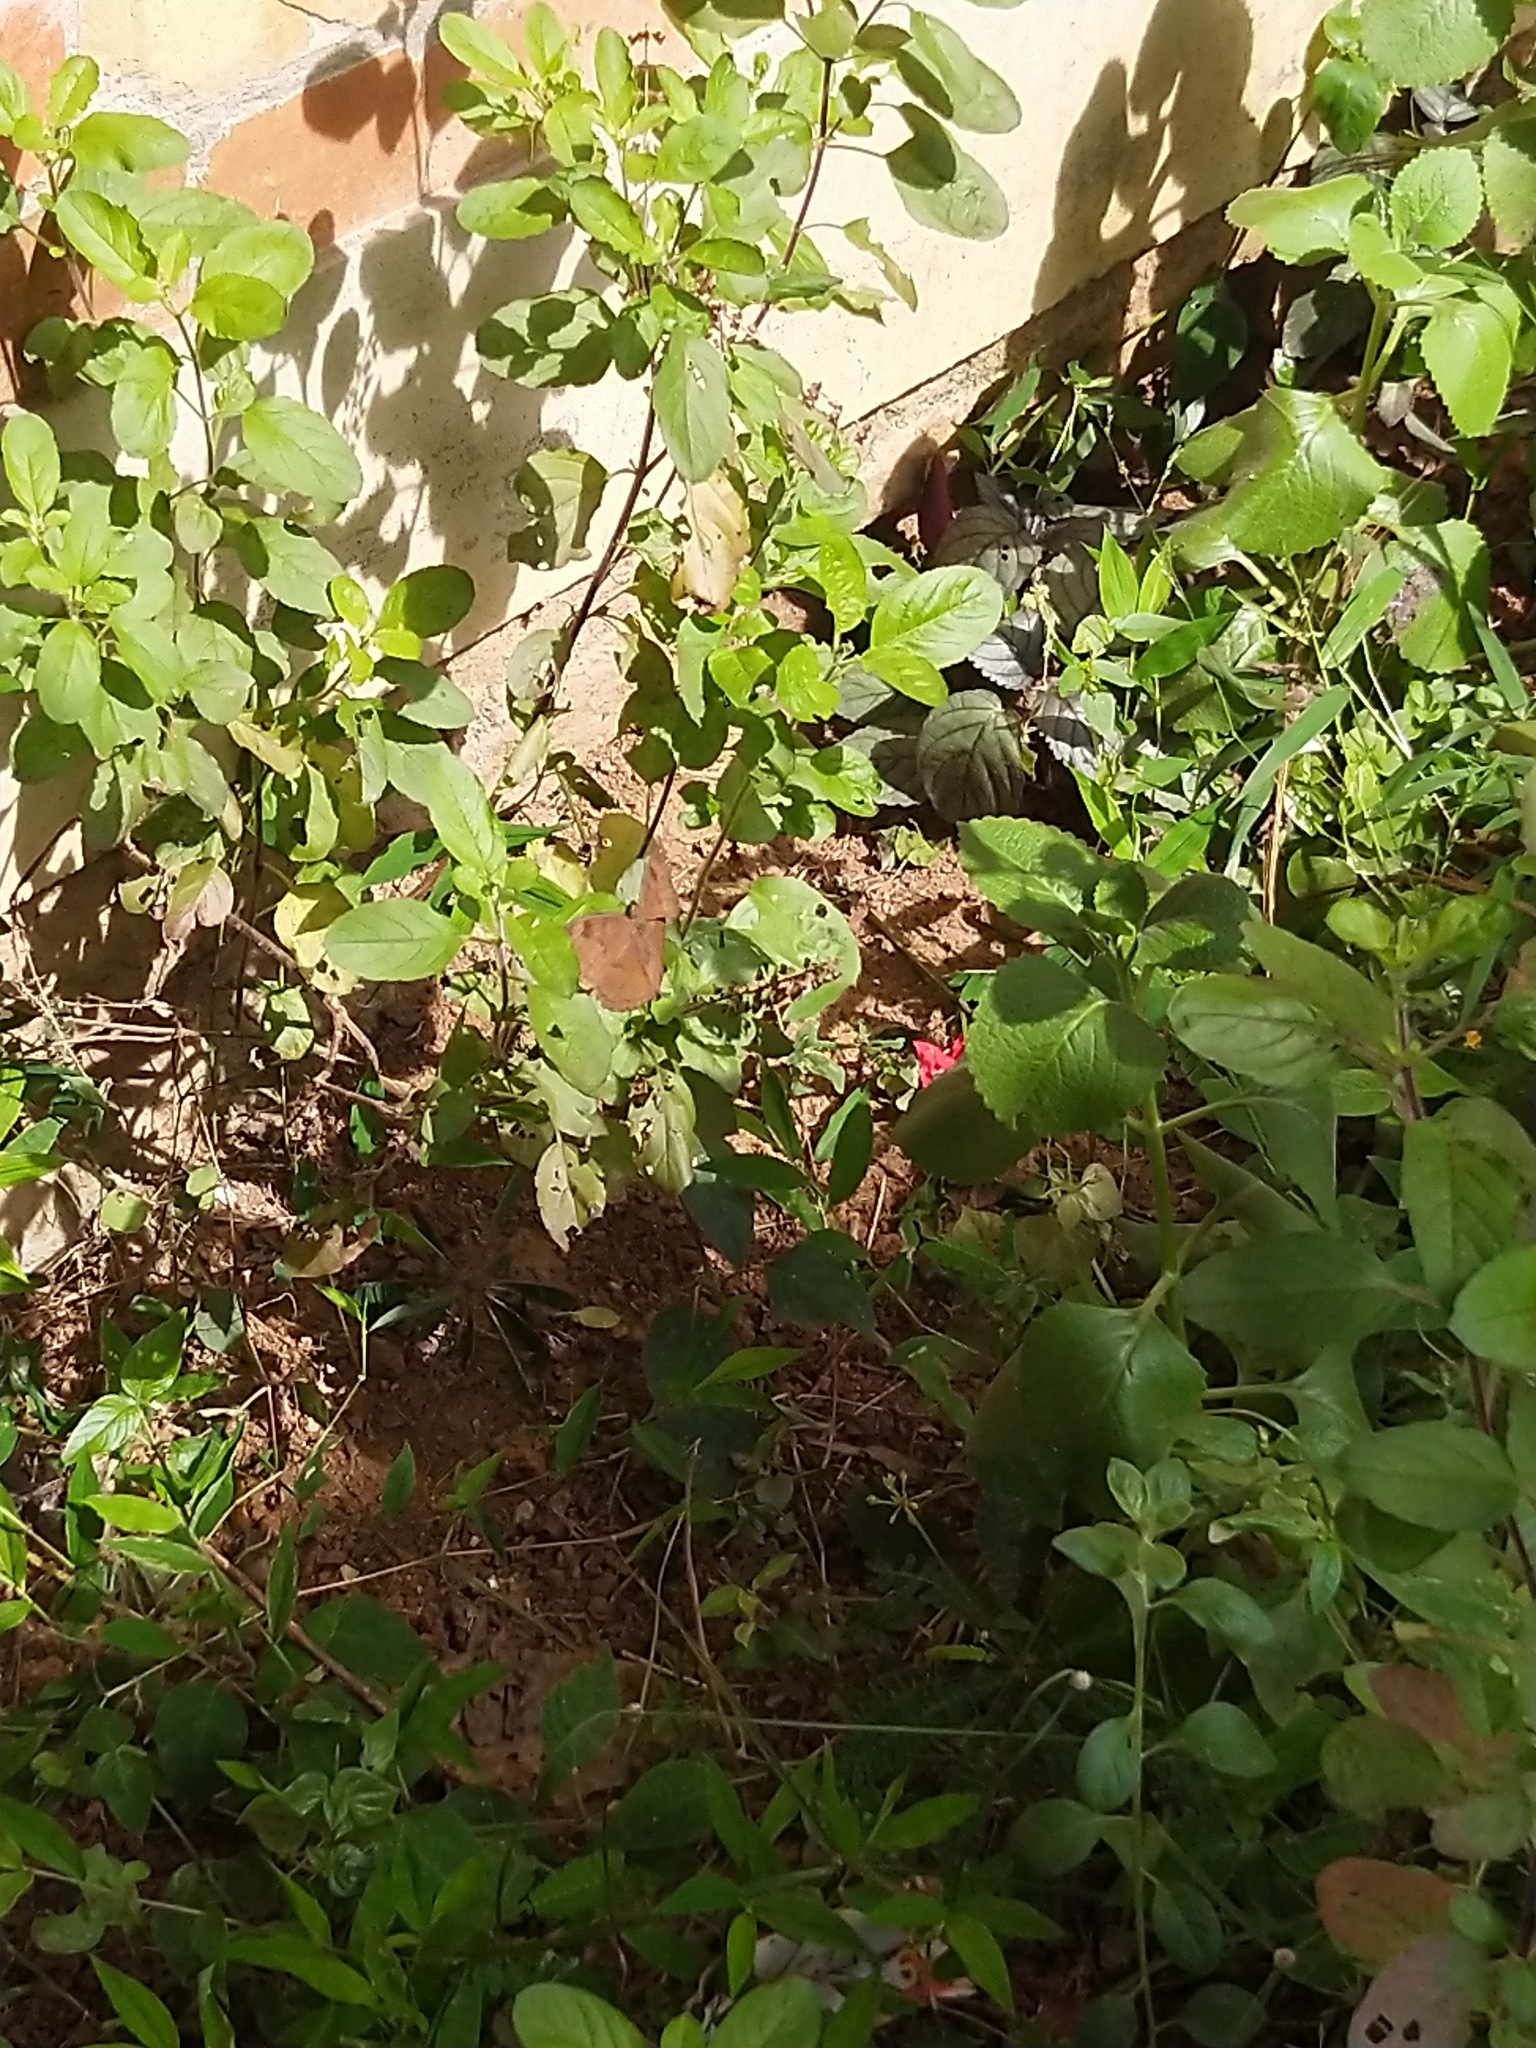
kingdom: Animalia
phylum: Arthropoda
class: Insecta
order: Lepidoptera
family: Nymphalidae
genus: Junonia
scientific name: Junonia iphita
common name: Chocolate pansy
